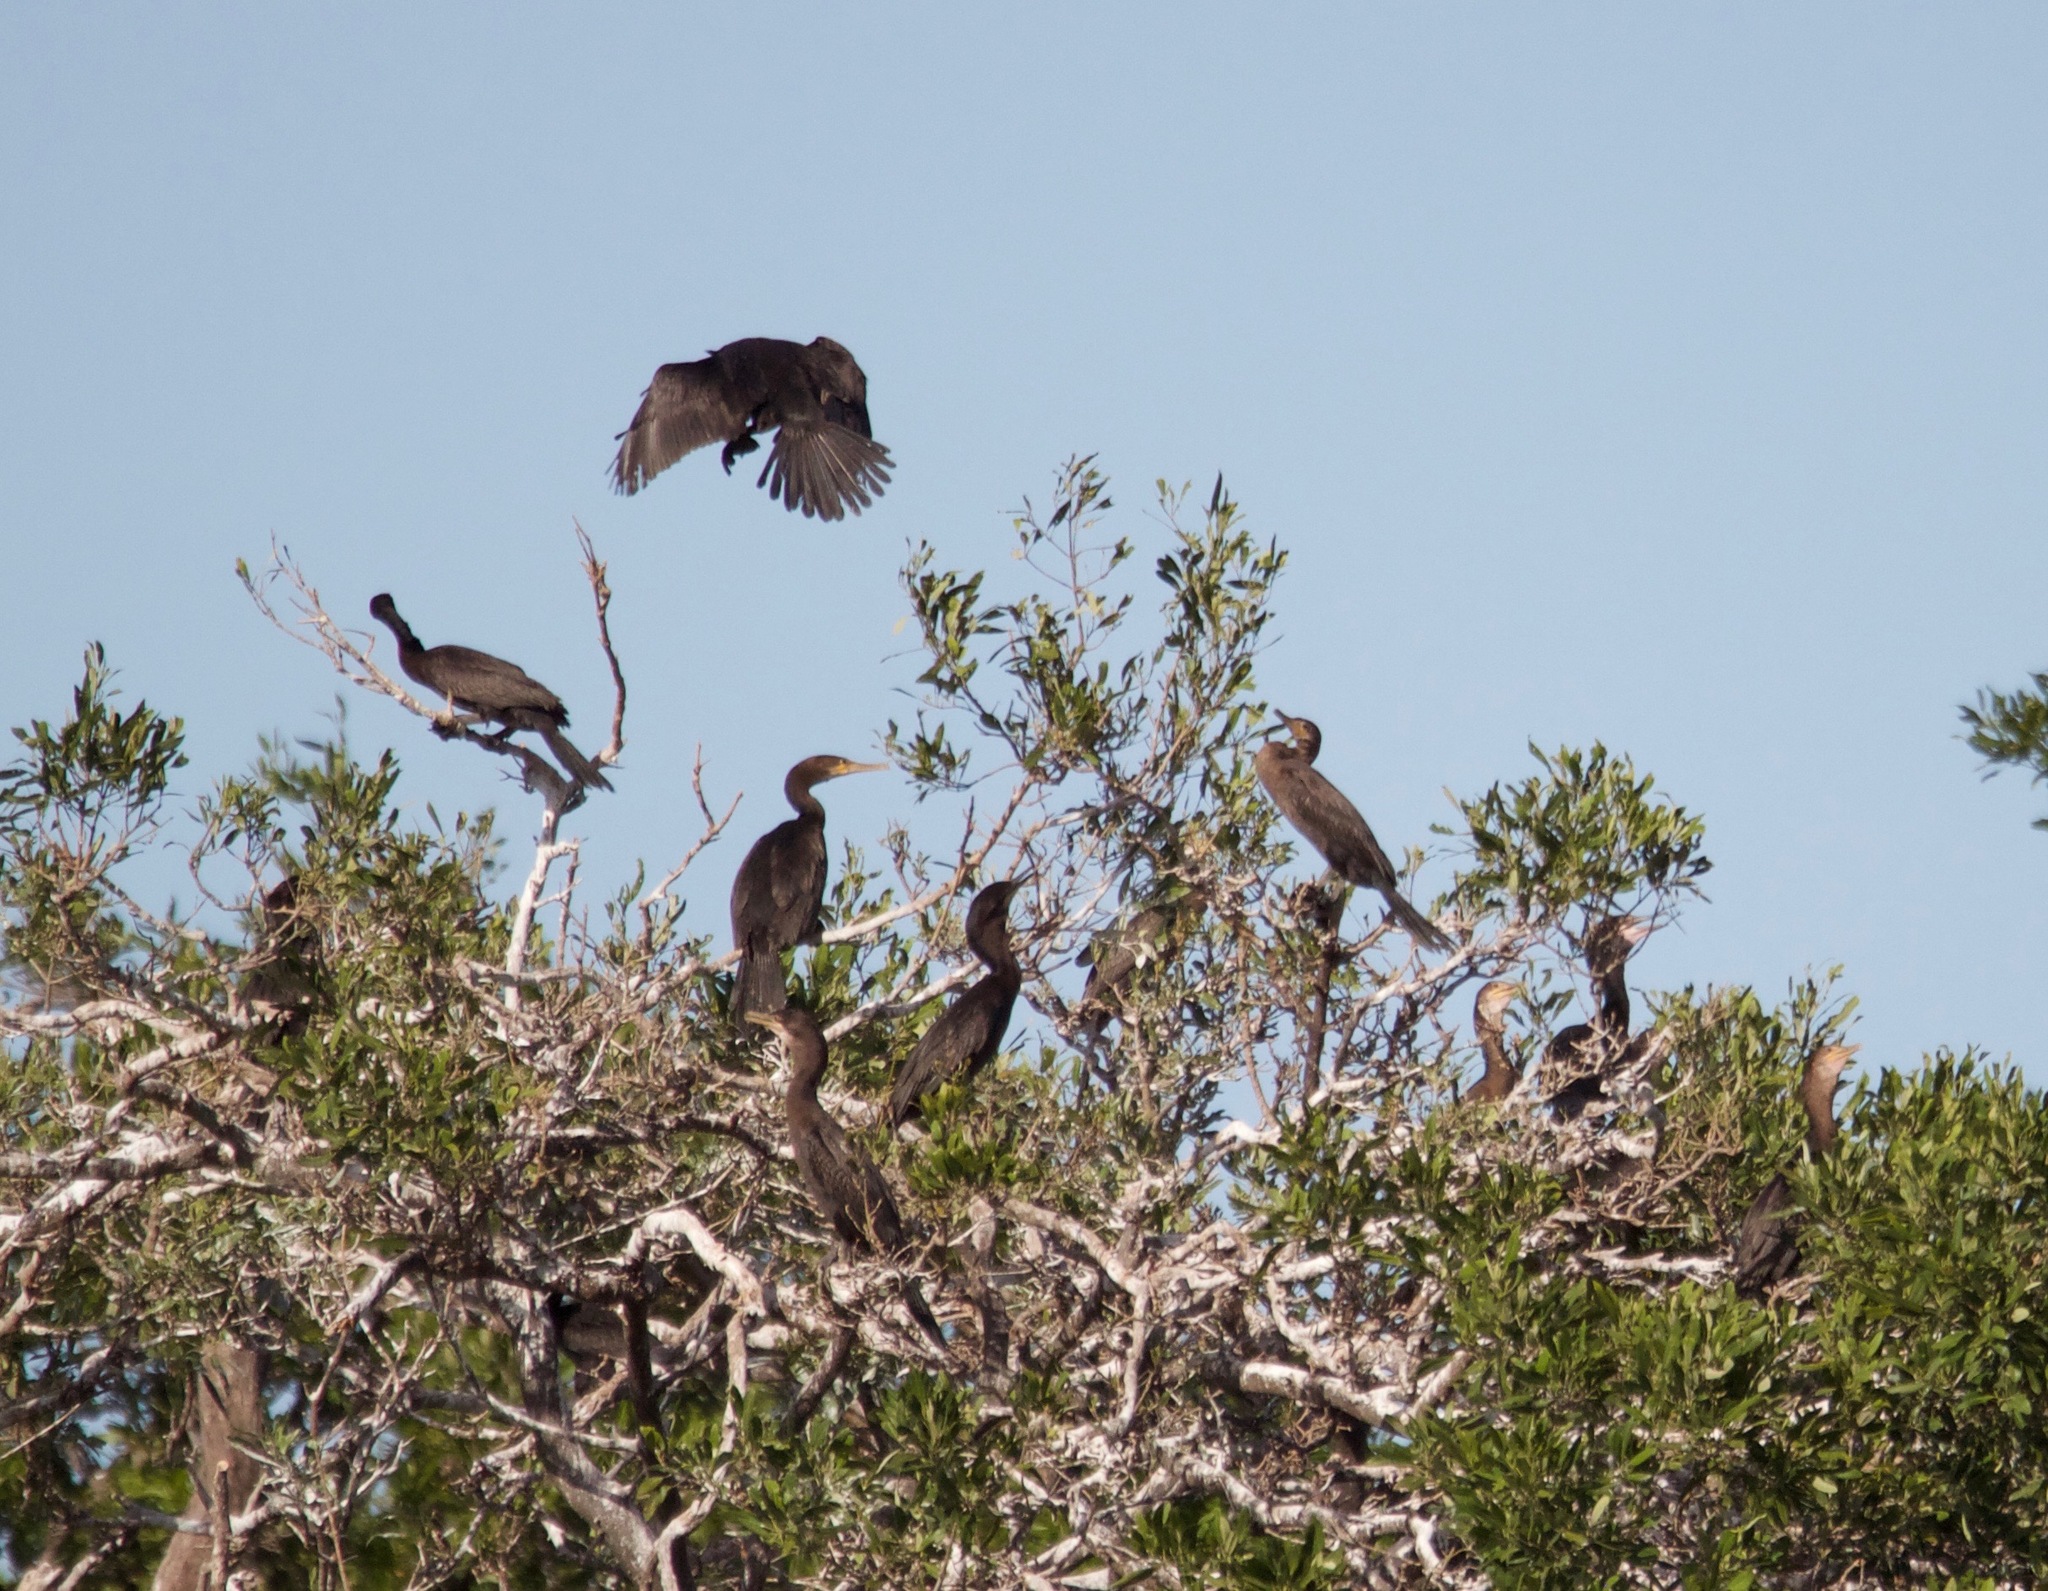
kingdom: Animalia
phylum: Chordata
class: Aves
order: Suliformes
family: Phalacrocoracidae
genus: Phalacrocorax
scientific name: Phalacrocorax brasilianus
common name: Neotropic cormorant
